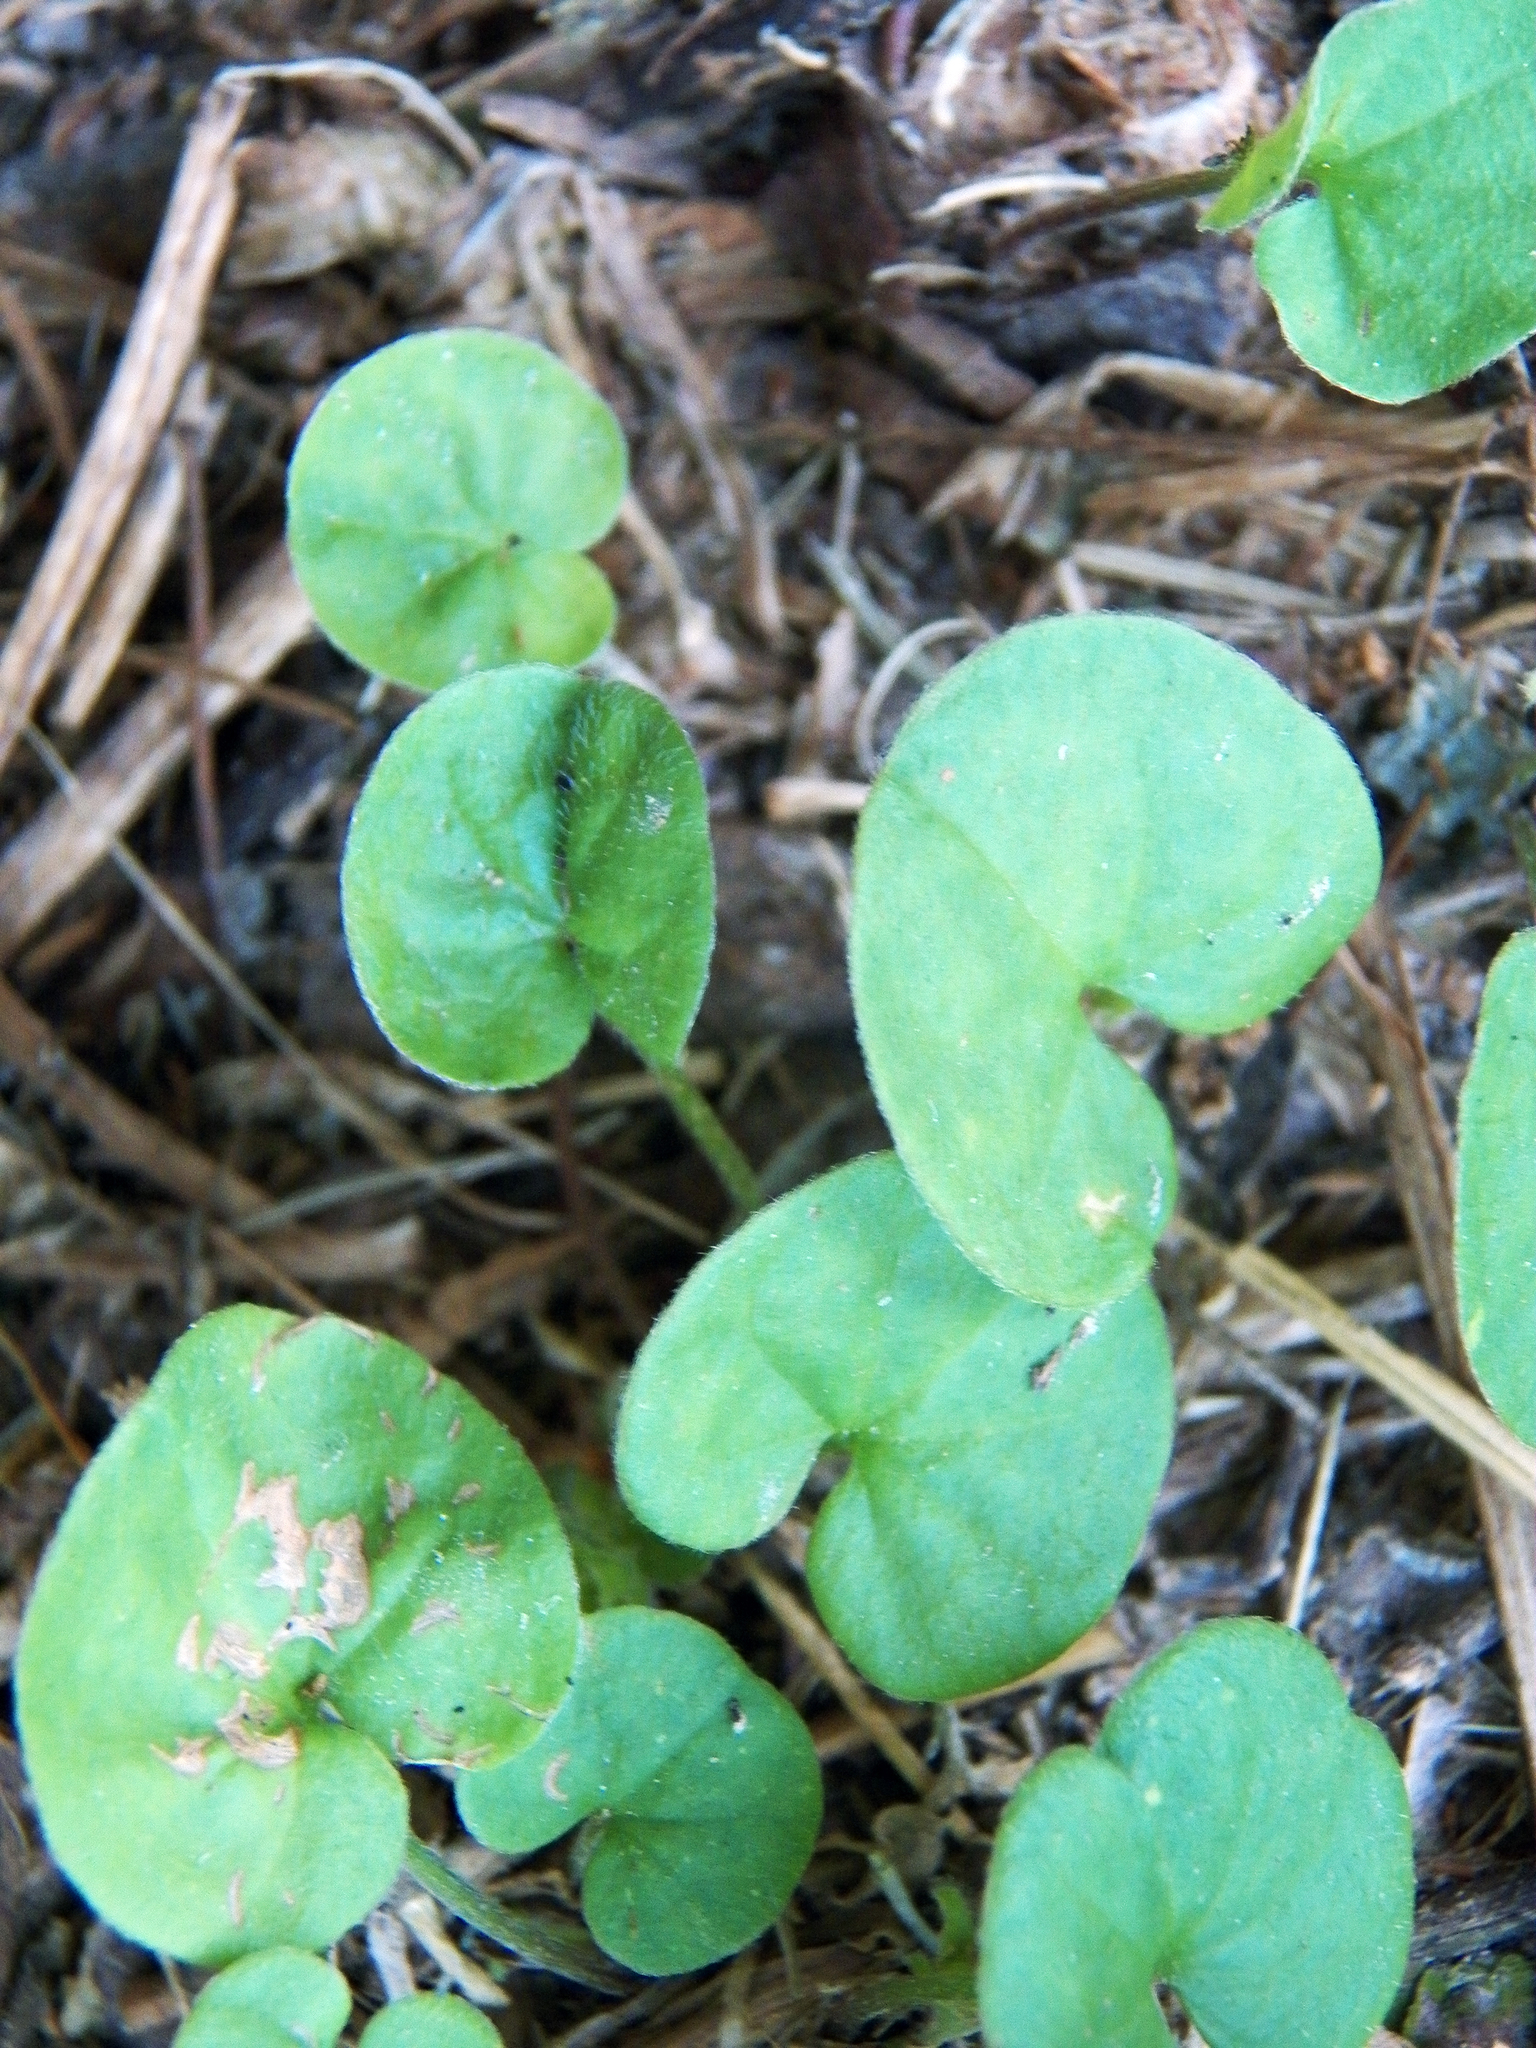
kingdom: Plantae
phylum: Tracheophyta
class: Magnoliopsida
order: Solanales
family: Convolvulaceae
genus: Dichondra
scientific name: Dichondra carolinensis
